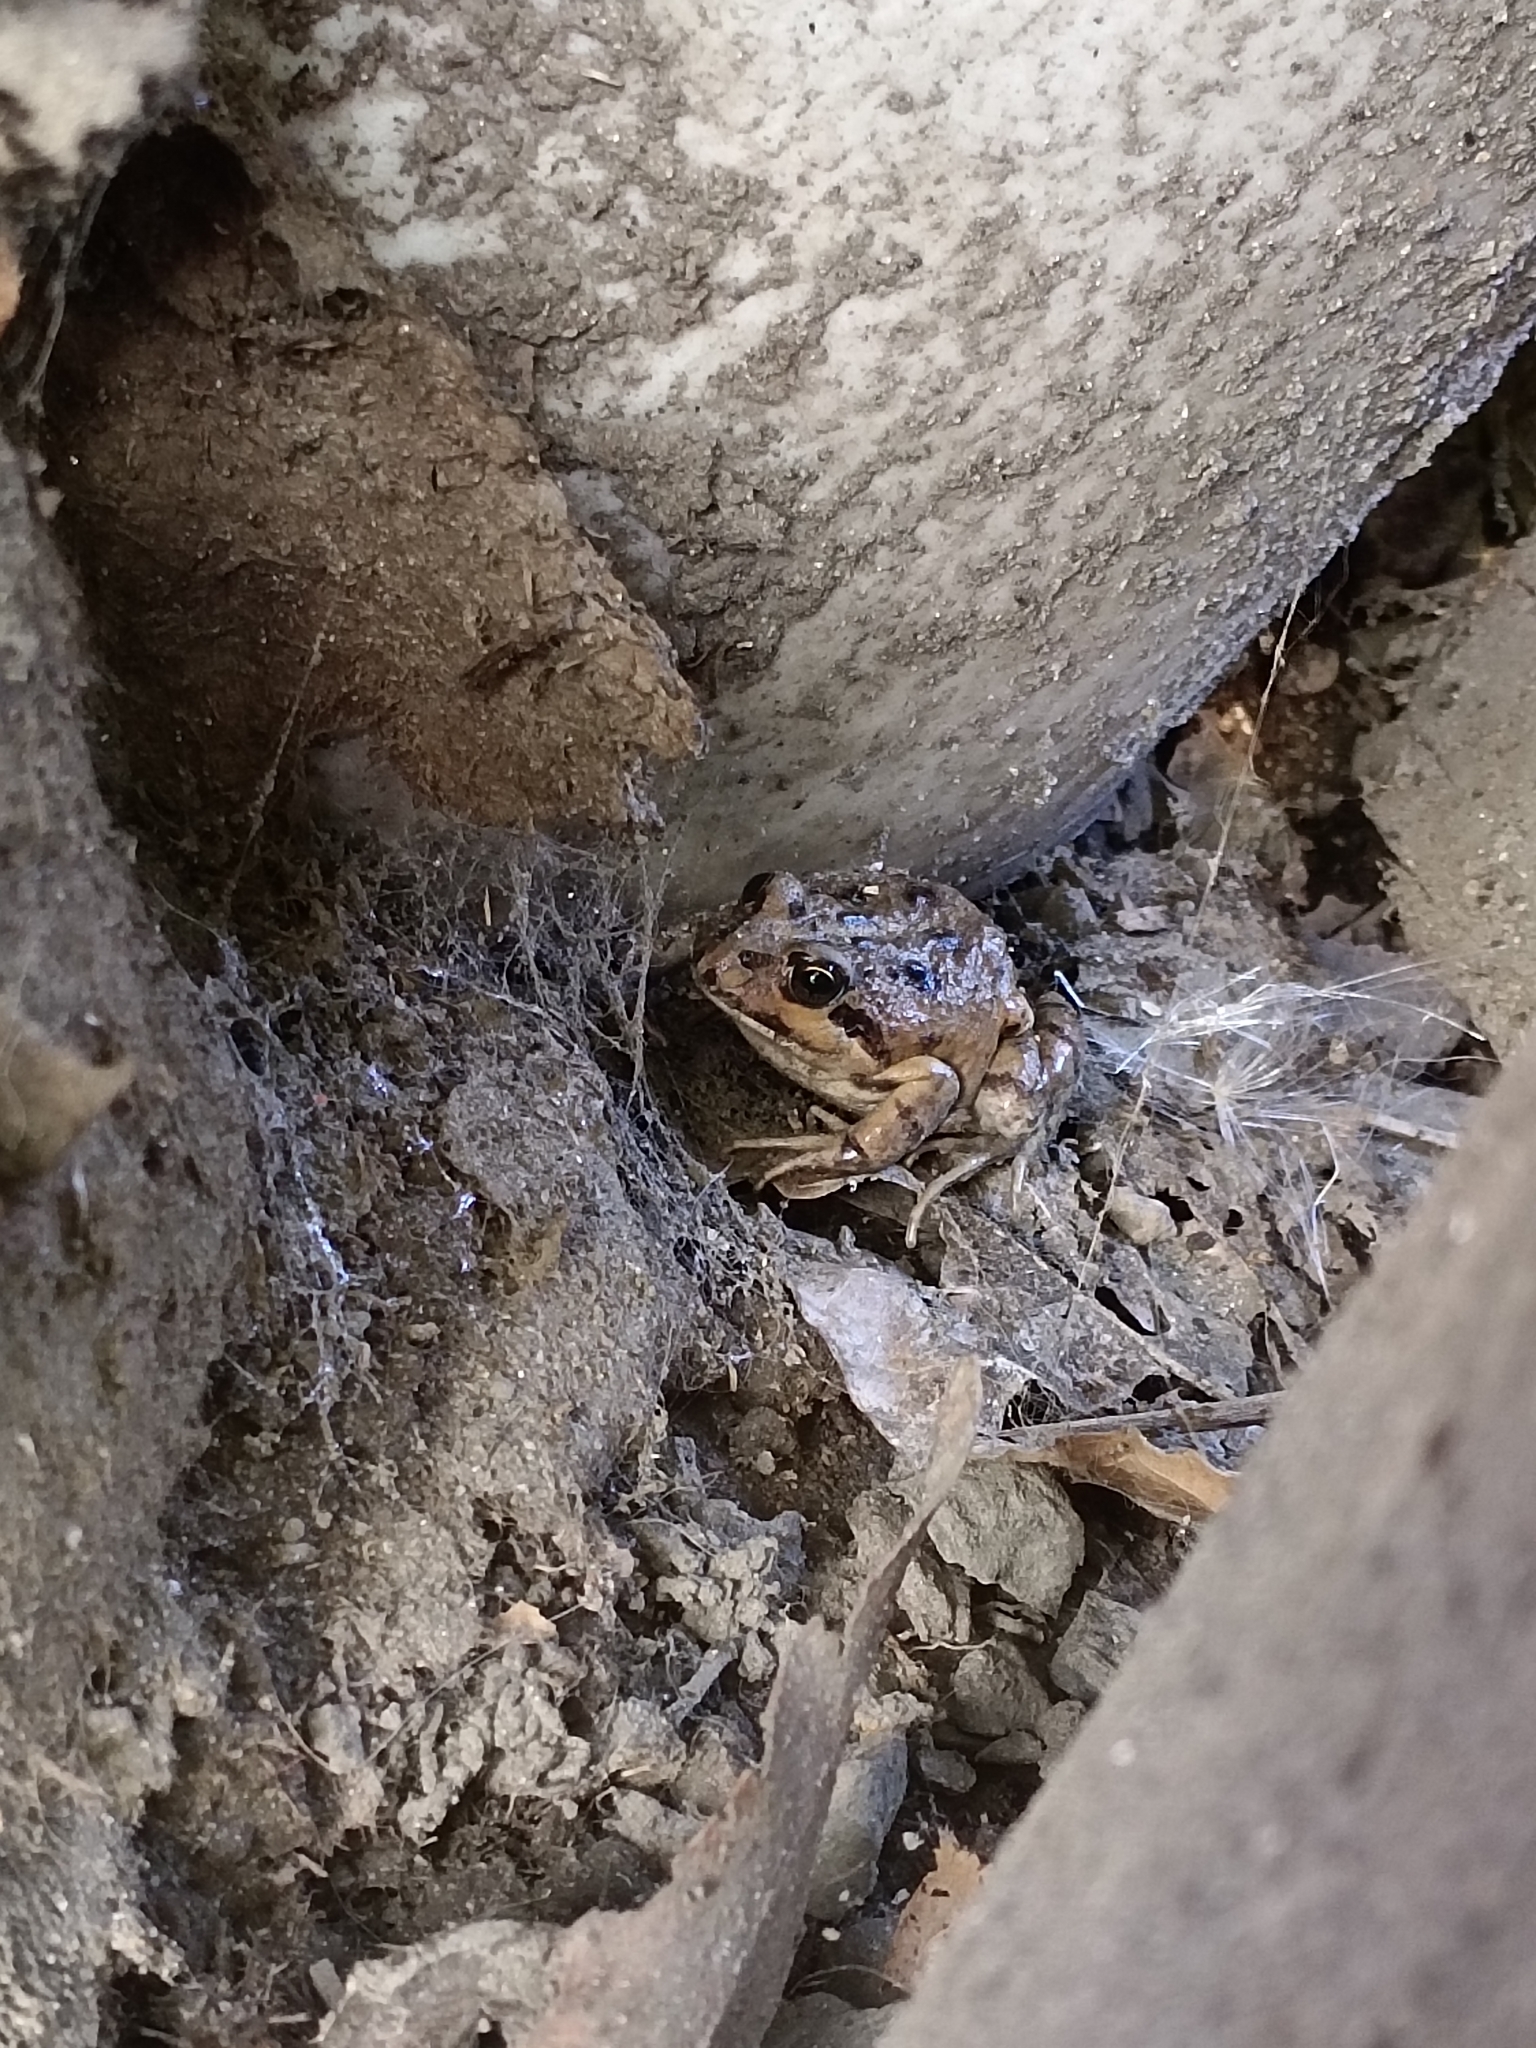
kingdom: Animalia
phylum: Chordata
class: Amphibia
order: Anura
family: Leptodactylidae
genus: Pleurodema
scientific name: Pleurodema thaul
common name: Chile four-eyed frog
